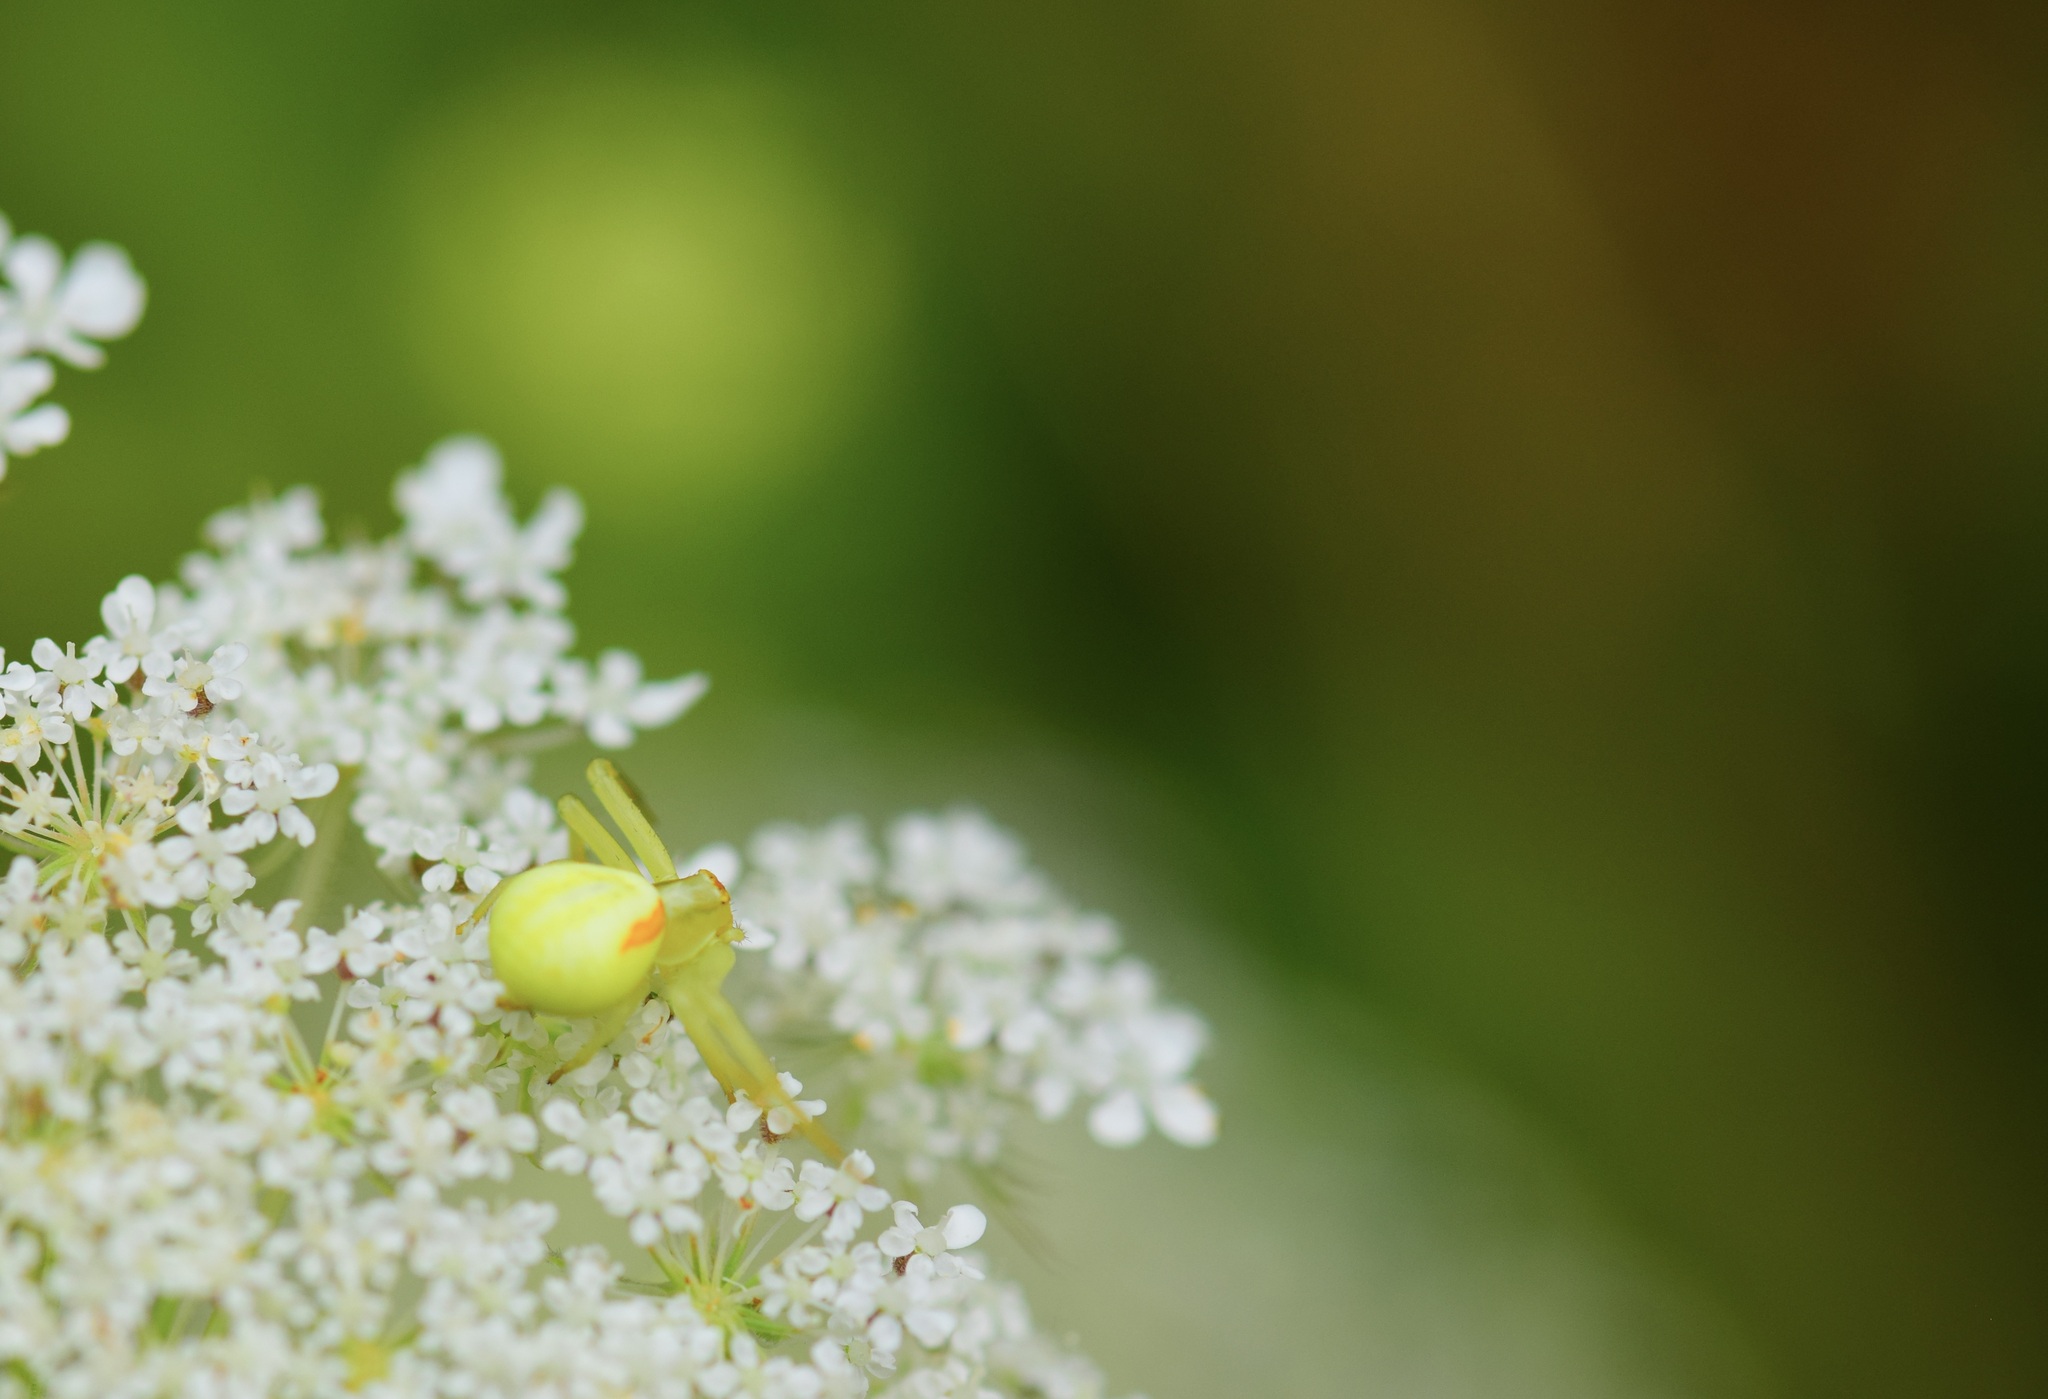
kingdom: Animalia
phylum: Arthropoda
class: Arachnida
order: Araneae
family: Thomisidae
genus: Misumena
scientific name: Misumena vatia
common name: Goldenrod crab spider
